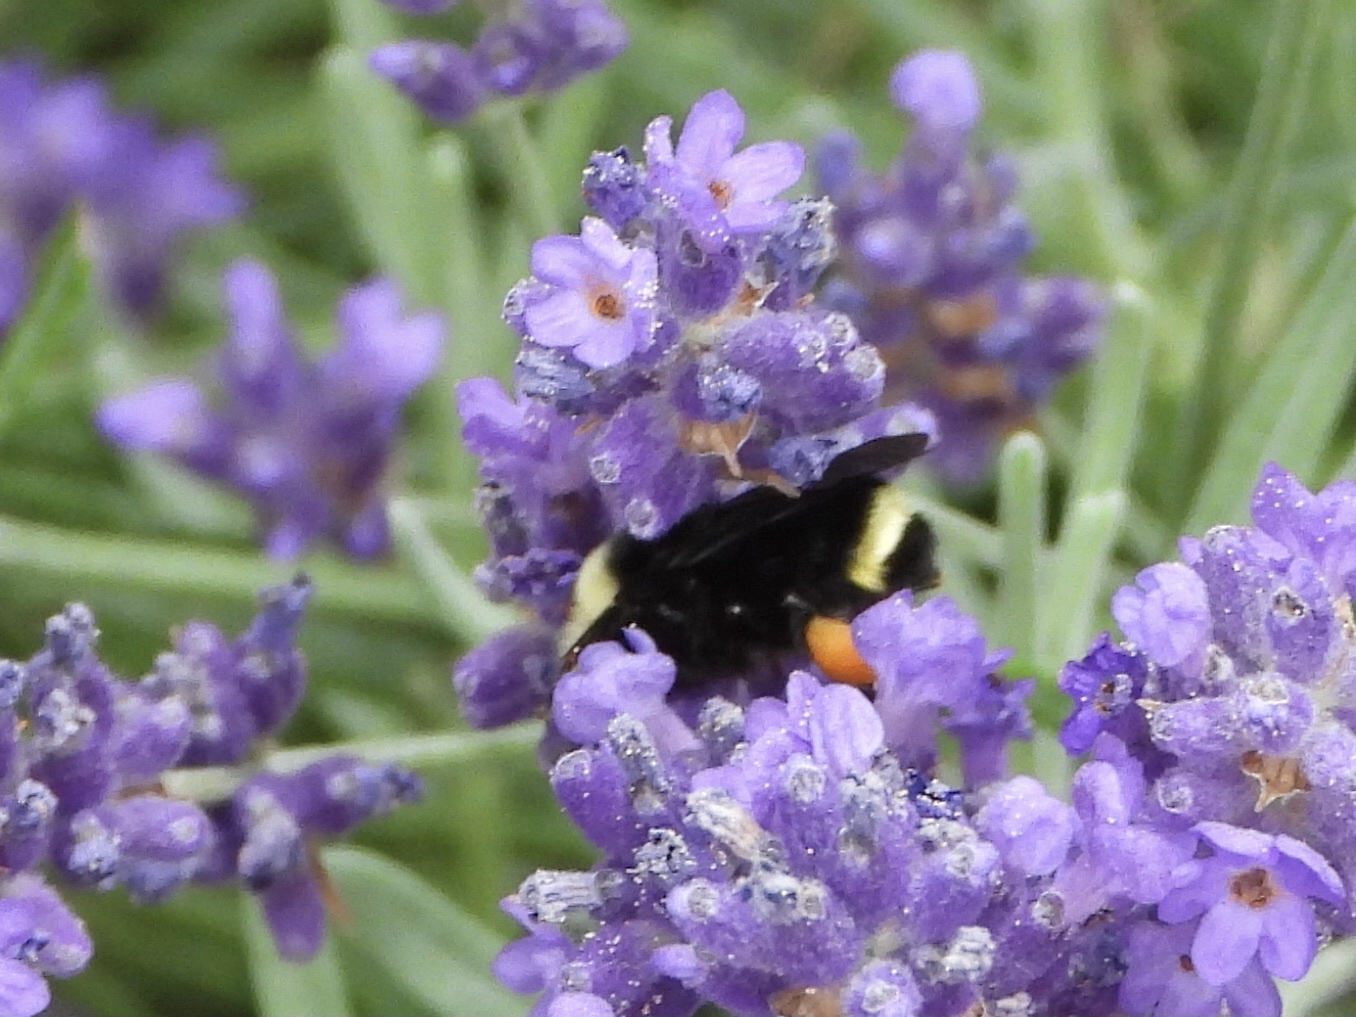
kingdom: Animalia
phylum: Arthropoda
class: Insecta
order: Hymenoptera
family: Apidae
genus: Bombus
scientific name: Bombus vosnesenskii
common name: Vosnesensky bumble bee
